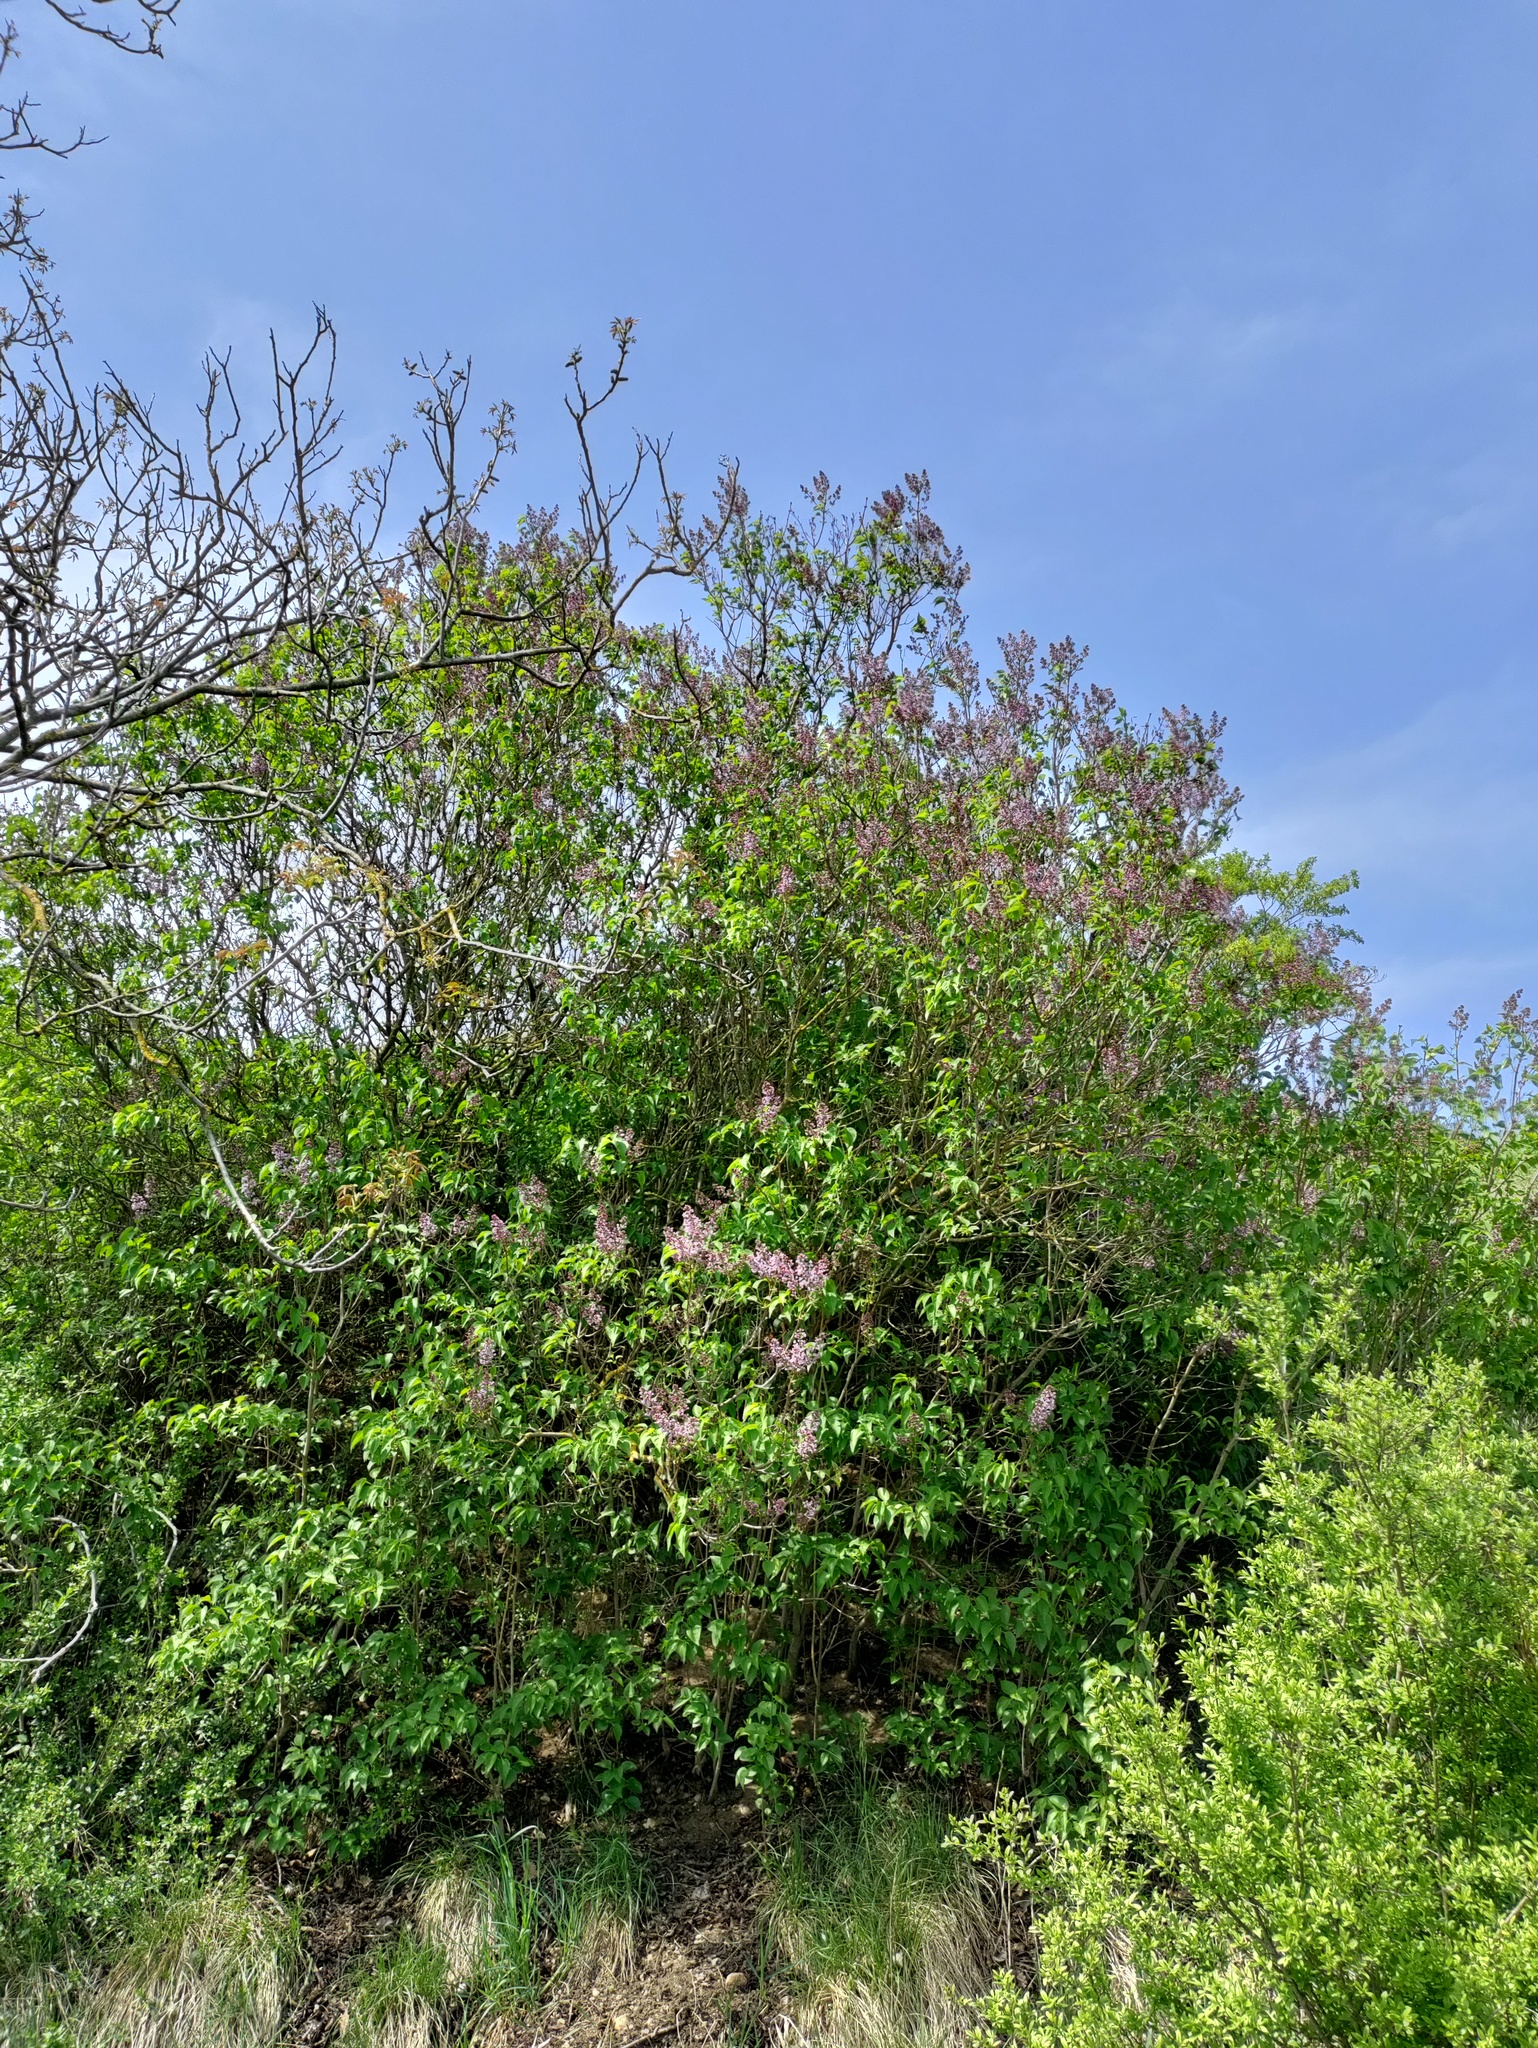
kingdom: Plantae
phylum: Tracheophyta
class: Magnoliopsida
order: Lamiales
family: Oleaceae
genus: Syringa
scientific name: Syringa vulgaris
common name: Common lilac
